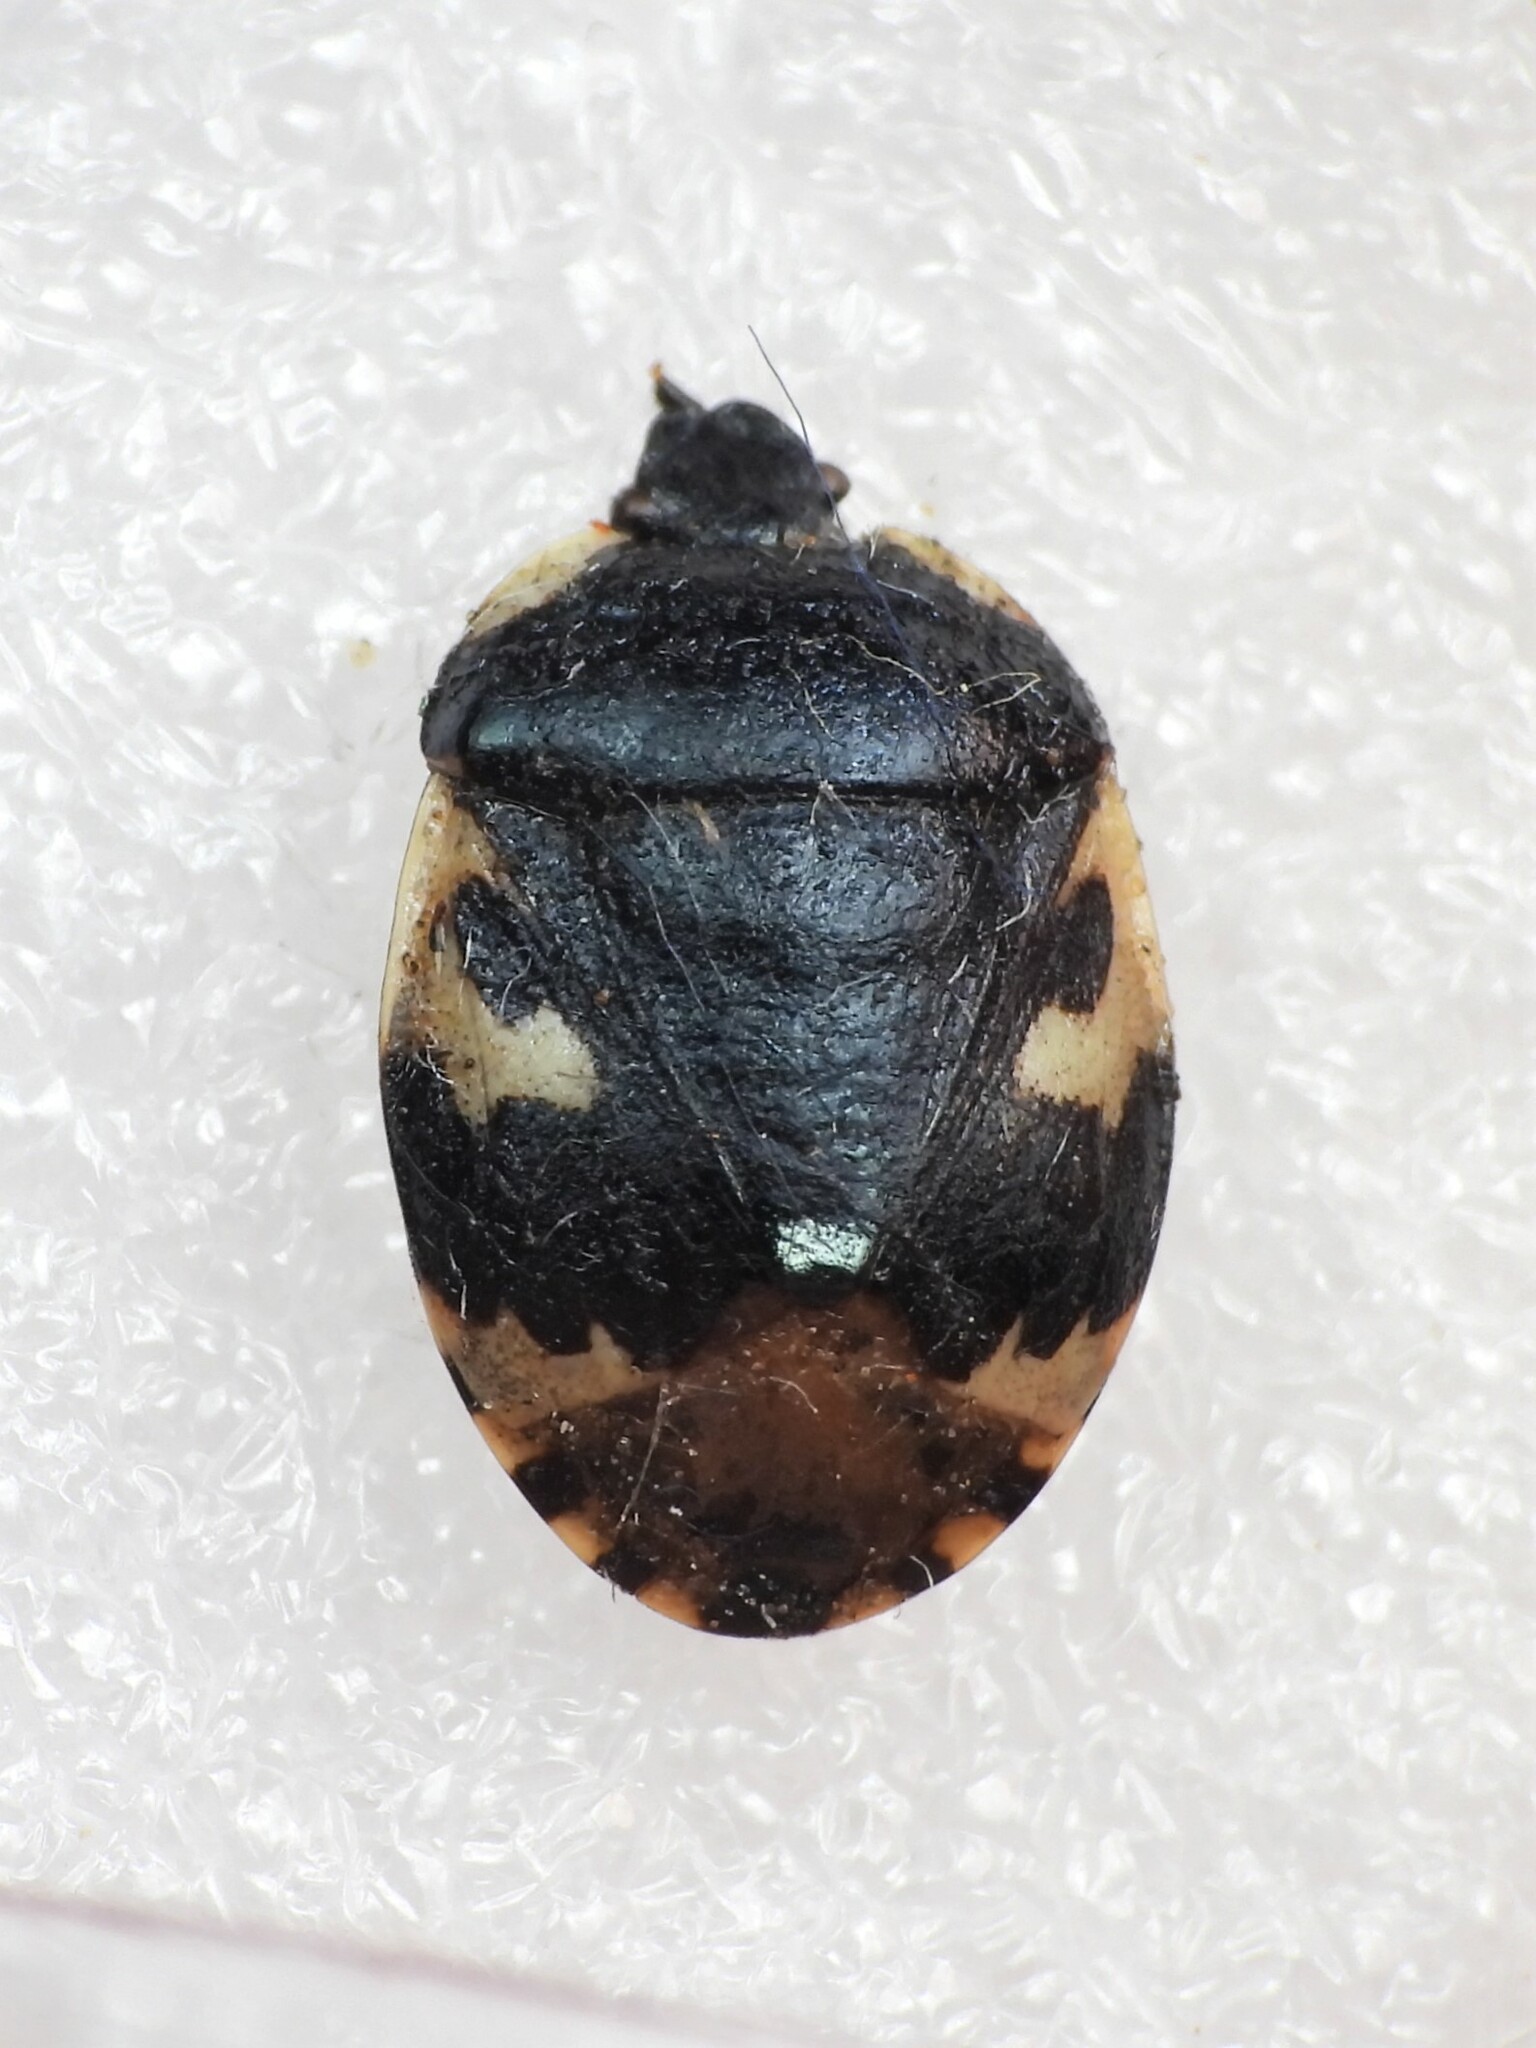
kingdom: Animalia
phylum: Arthropoda
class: Insecta
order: Hemiptera
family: Cydnidae
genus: Tritomegas
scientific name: Tritomegas bicolor
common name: Pied shieldbug
